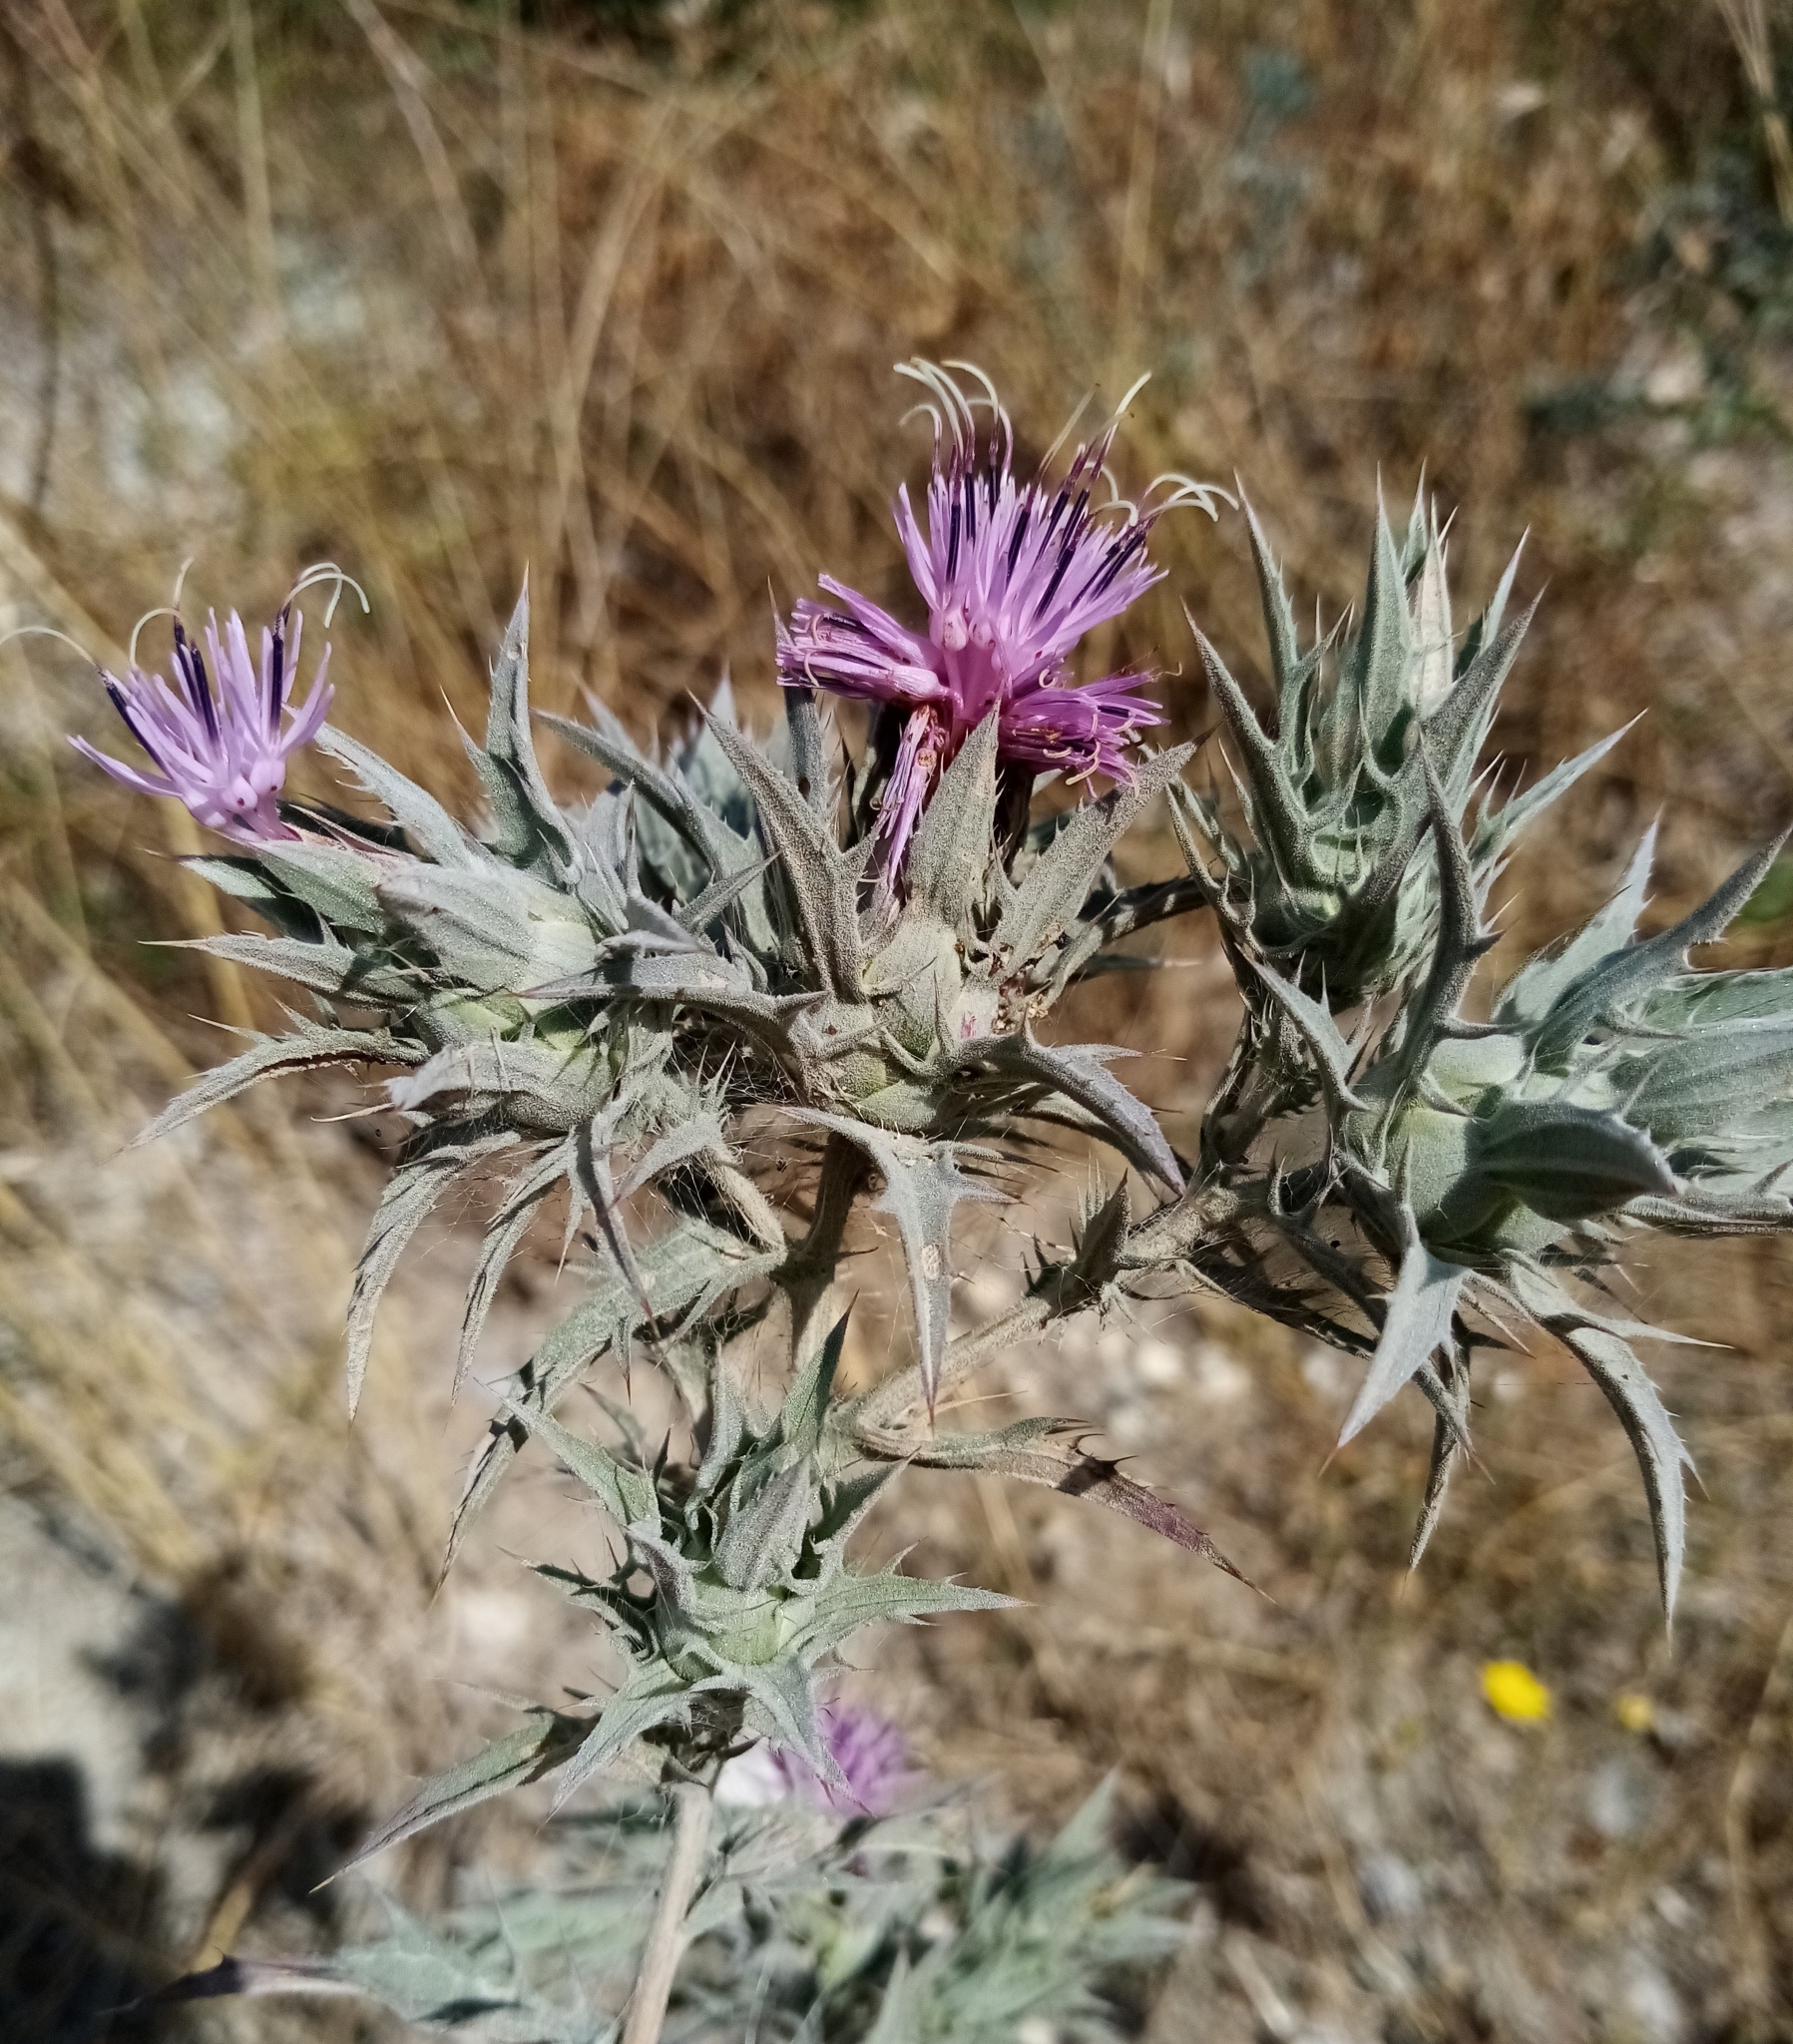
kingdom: Plantae
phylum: Tracheophyta
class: Magnoliopsida
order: Asterales
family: Asteraceae
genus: Carthamus
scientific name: Carthamus glaucus
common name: Mediterranean thistle
